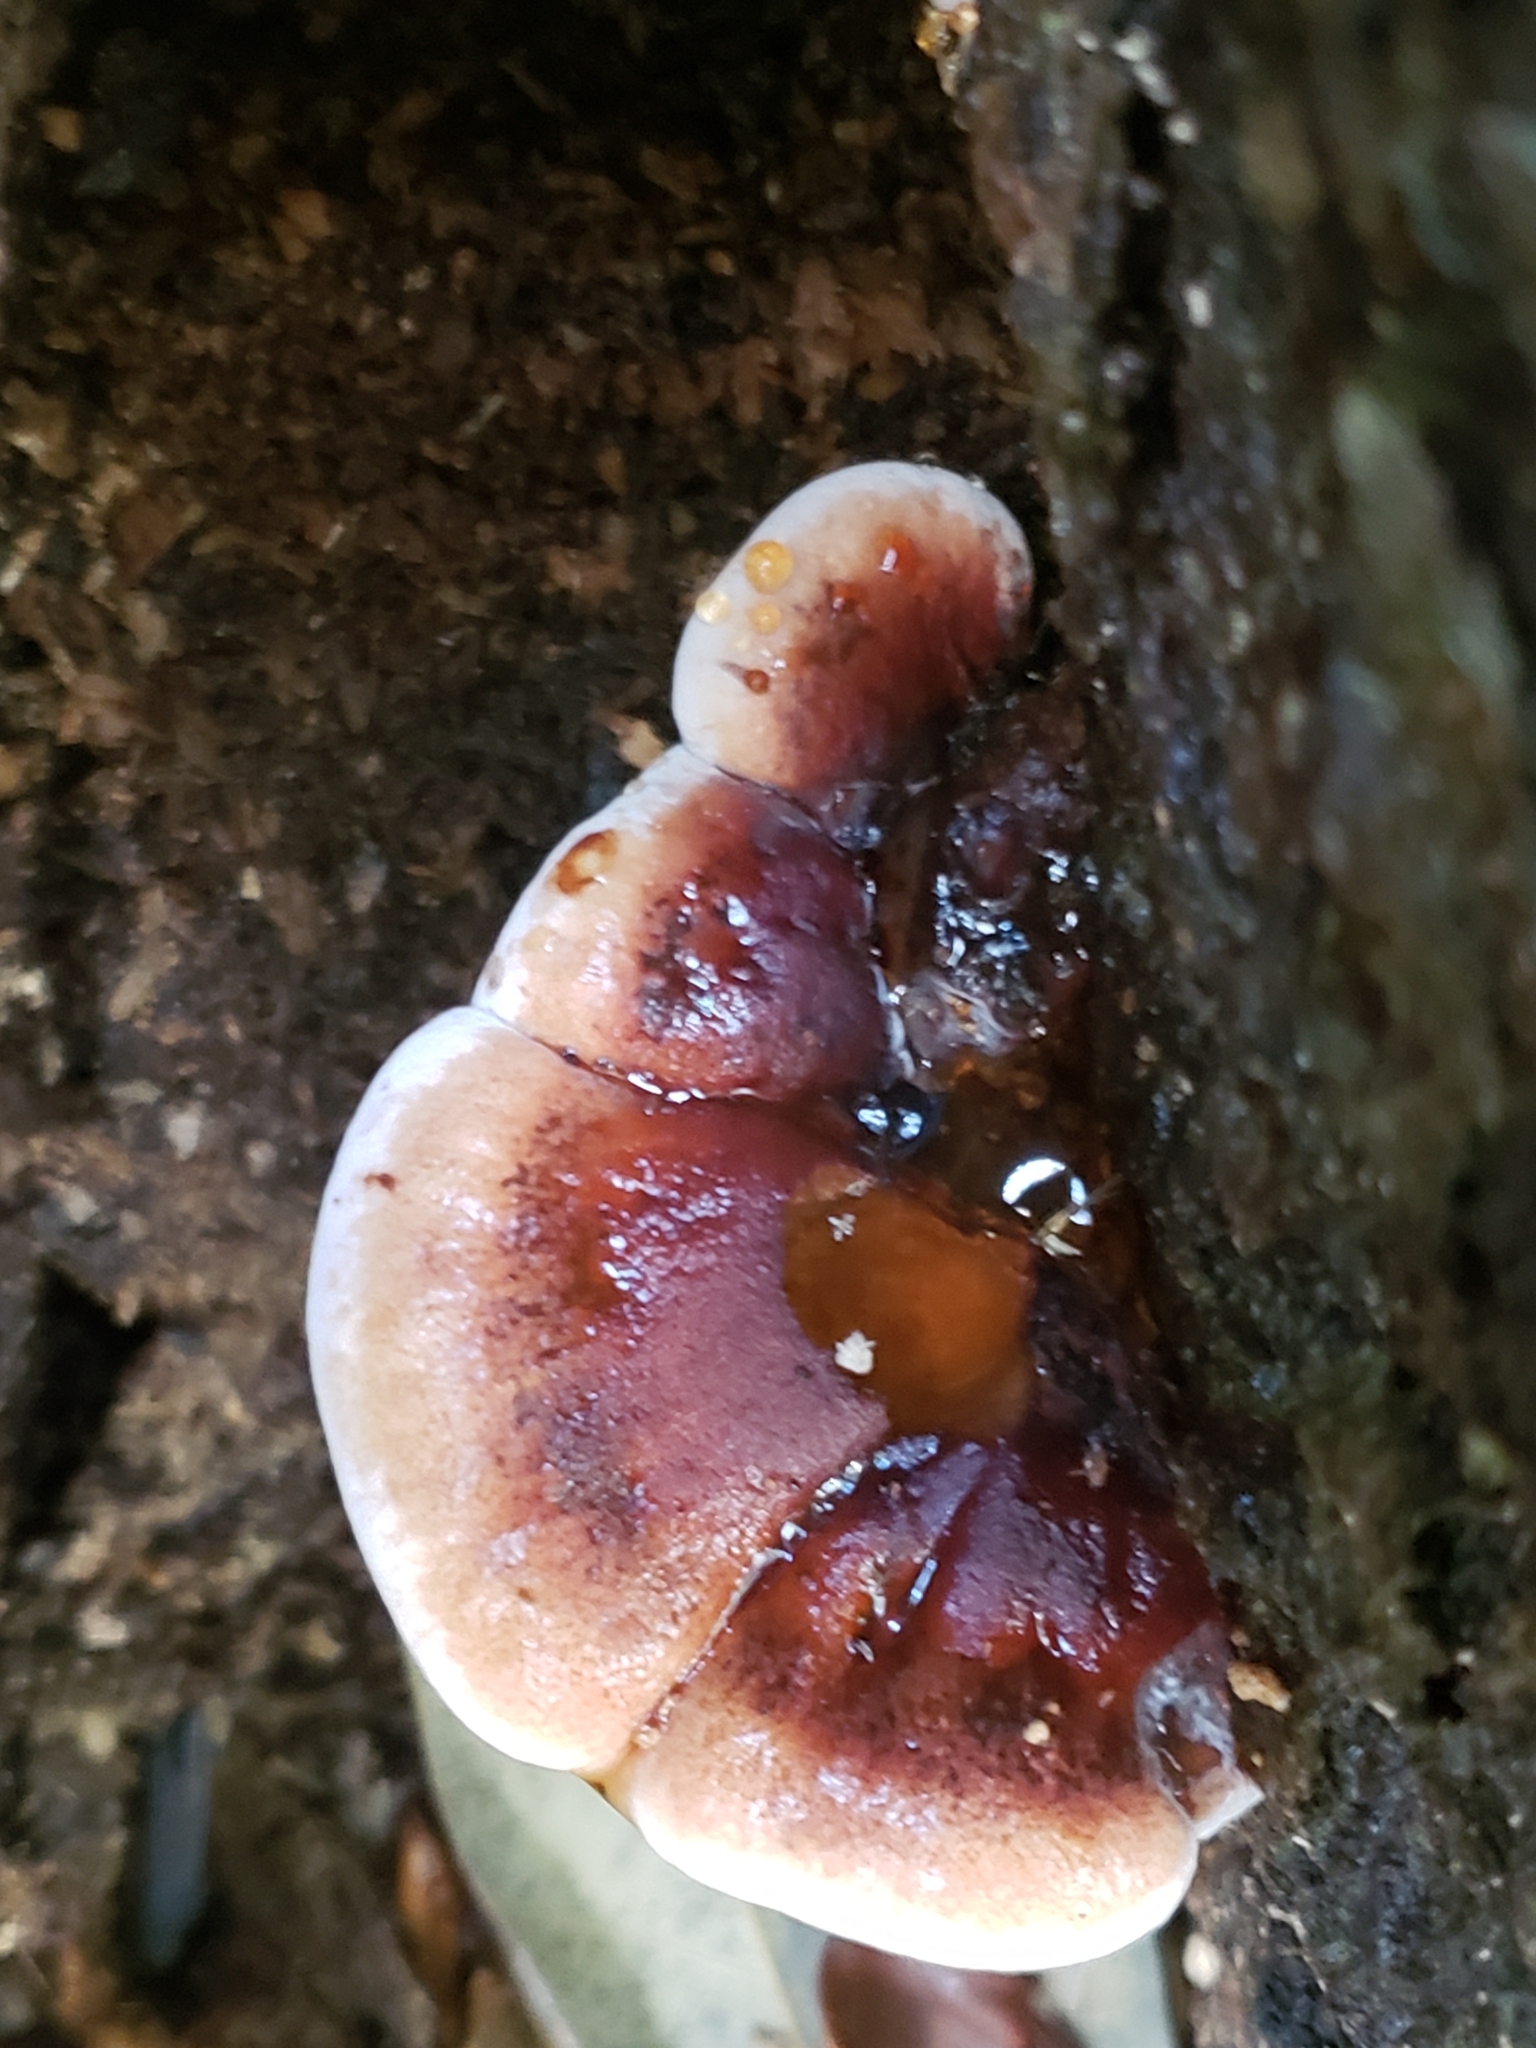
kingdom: Fungi
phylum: Basidiomycota
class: Agaricomycetes
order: Polyporales
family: Ischnodermataceae
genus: Ischnoderma
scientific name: Ischnoderma resinosum
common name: Resinous polypore
